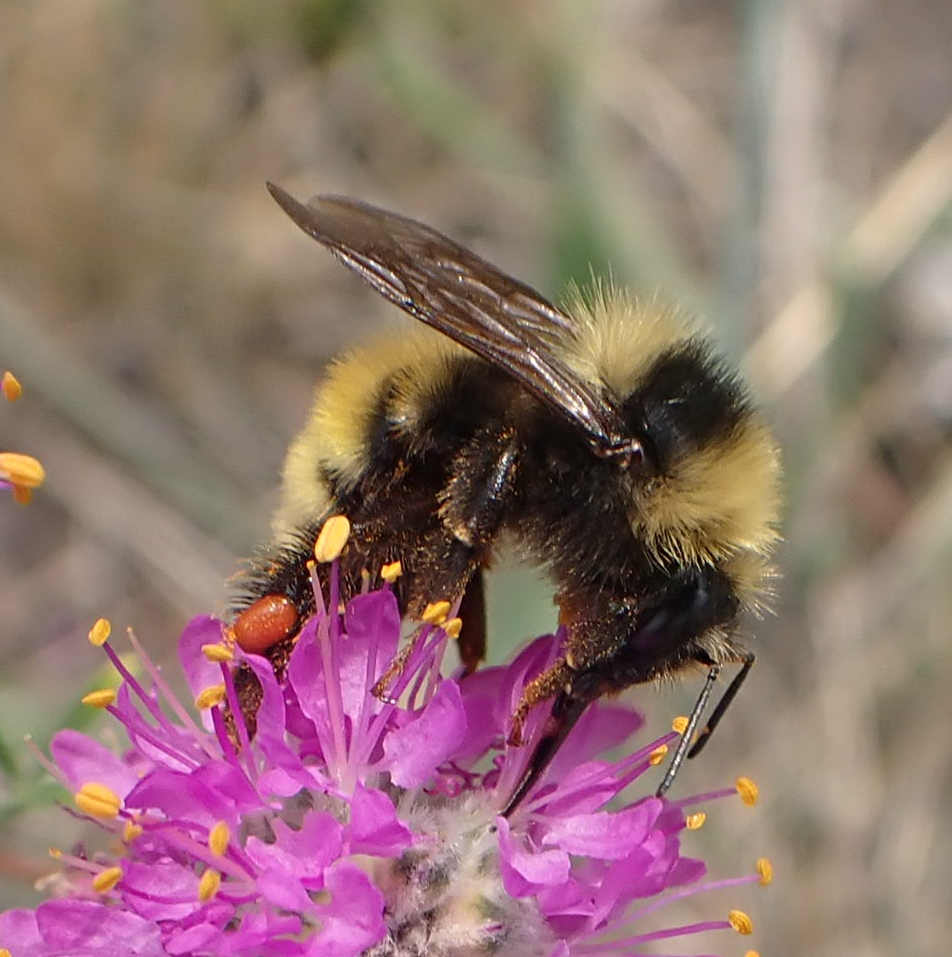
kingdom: Animalia
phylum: Arthropoda
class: Insecta
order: Hymenoptera
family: Apidae
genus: Bombus
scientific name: Bombus borealis
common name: Northern amber bumble bee
